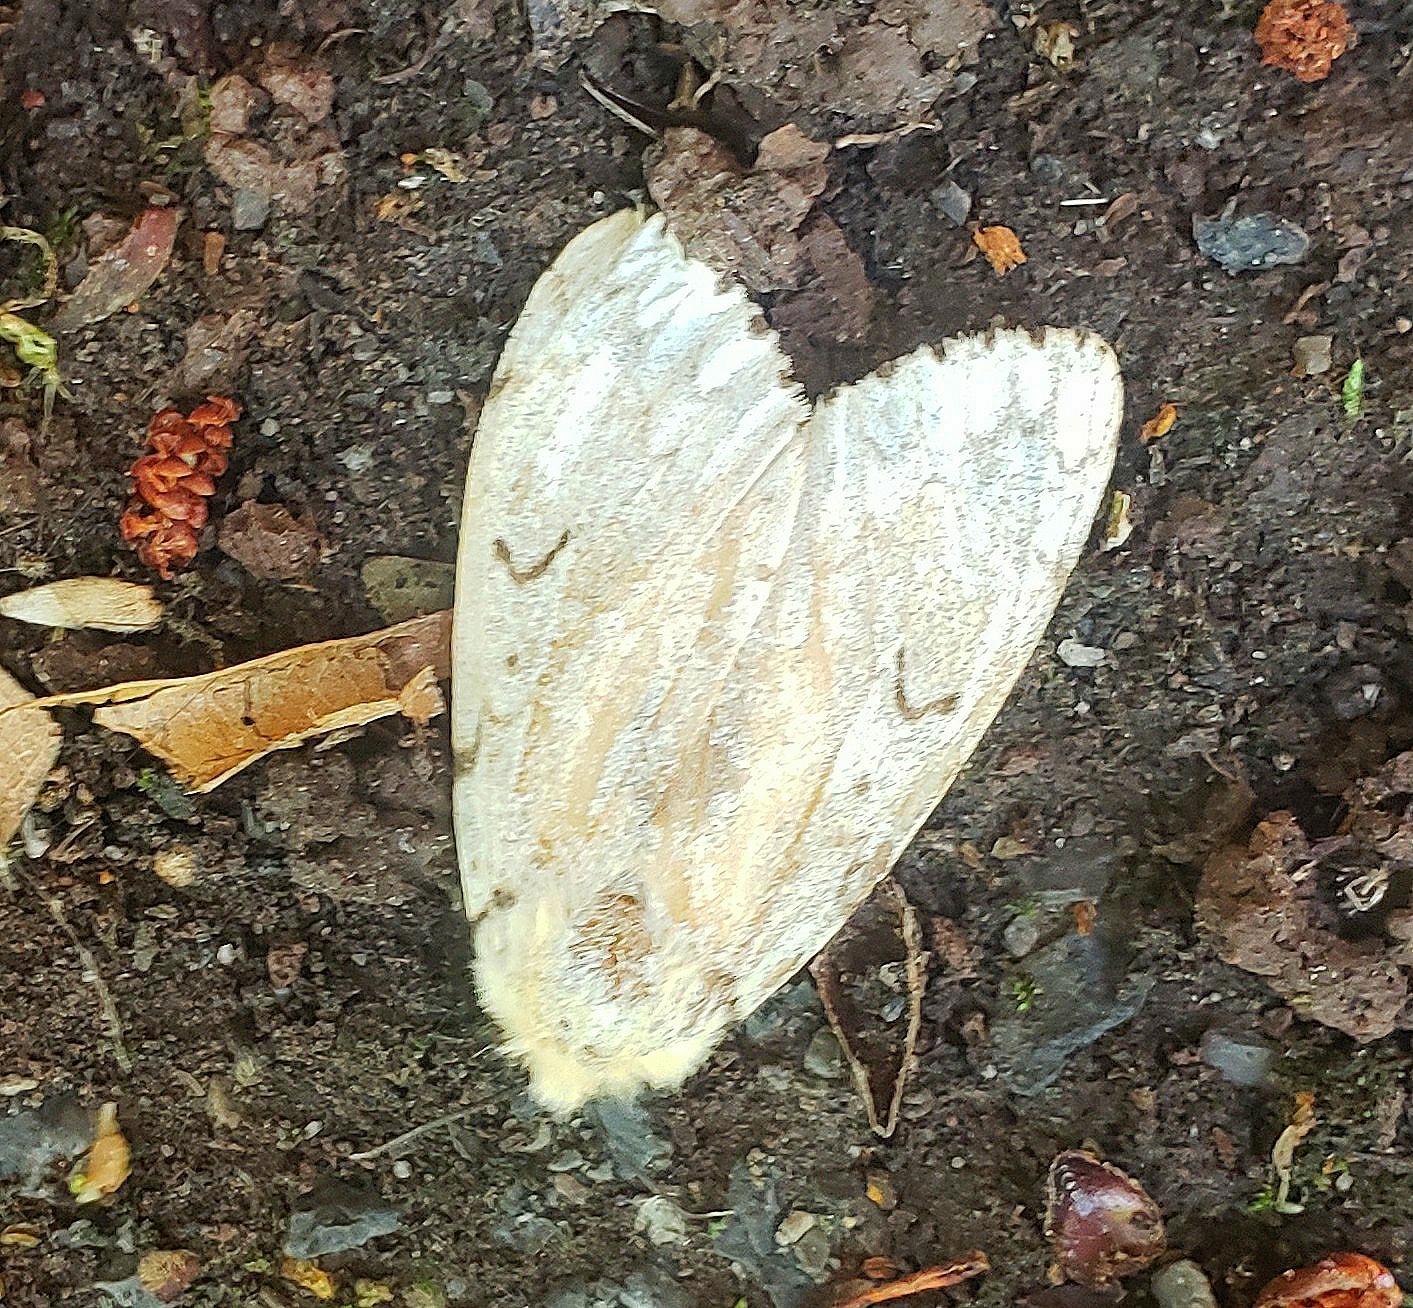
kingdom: Animalia
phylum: Arthropoda
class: Insecta
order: Lepidoptera
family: Erebidae
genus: Lymantria
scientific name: Lymantria dispar
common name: Gypsy moth
